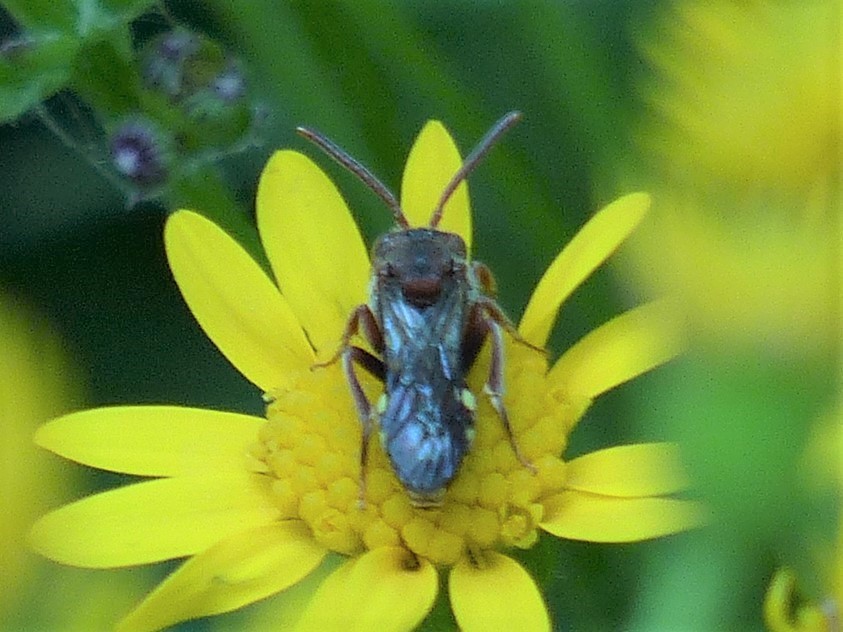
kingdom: Animalia
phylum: Arthropoda
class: Insecta
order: Hymenoptera
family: Apidae
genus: Nomada
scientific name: Nomada
